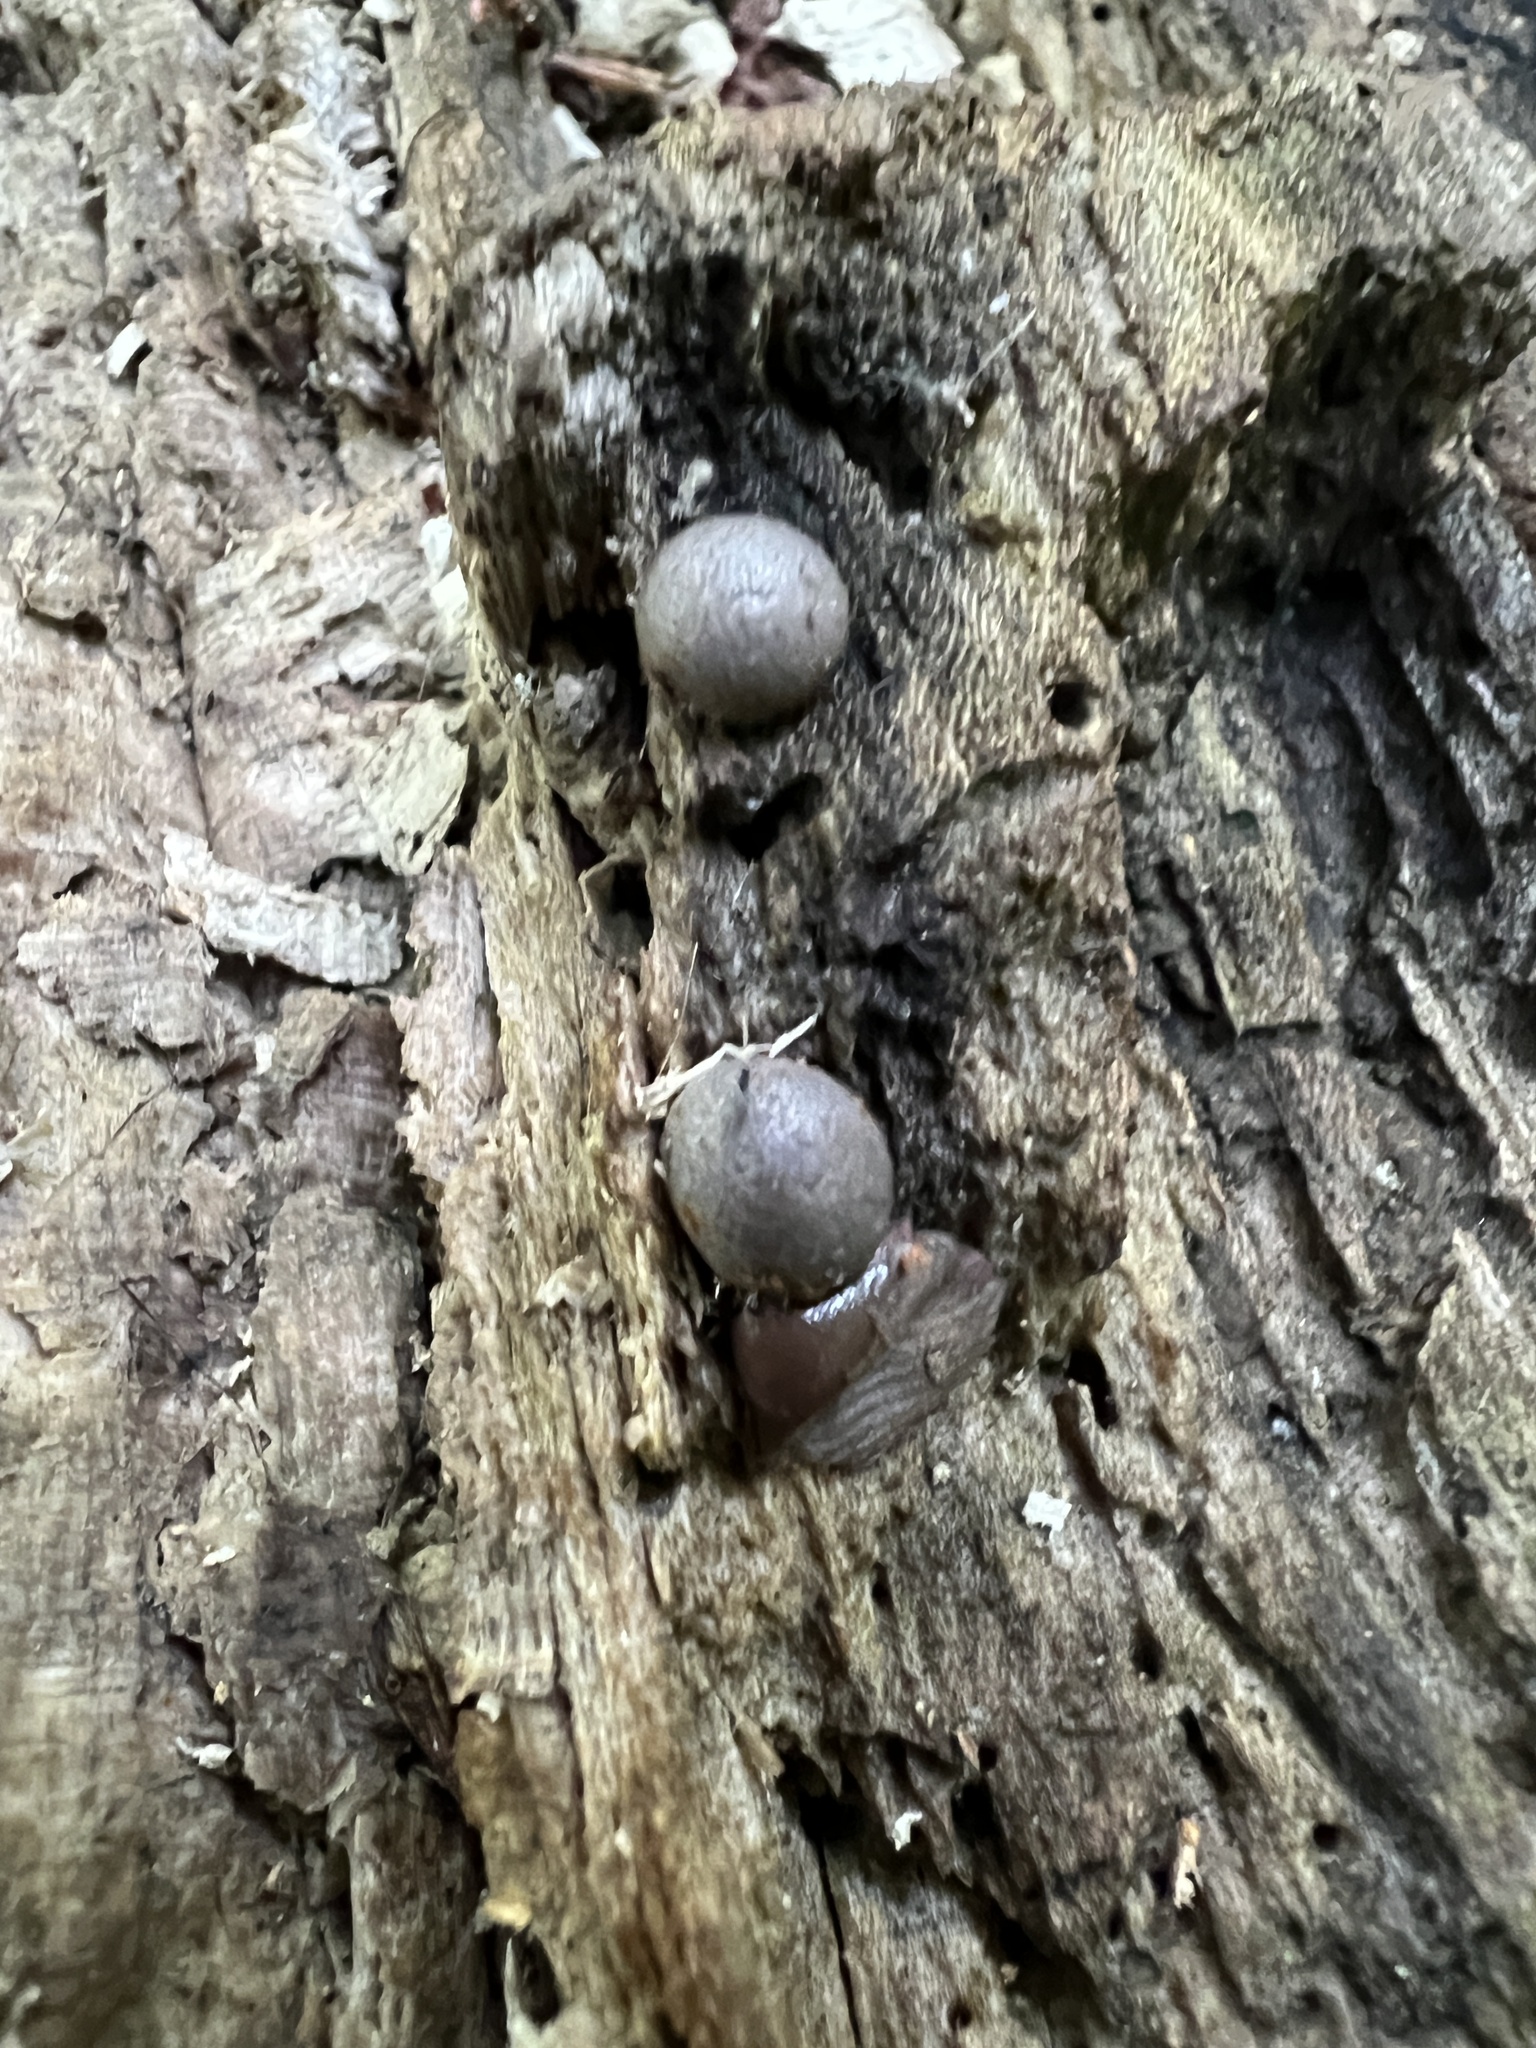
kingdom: Protozoa
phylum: Mycetozoa
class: Myxomycetes
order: Cribrariales
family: Tubiferaceae
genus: Lycogala
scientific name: Lycogala epidendrum
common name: Wolf's milk
